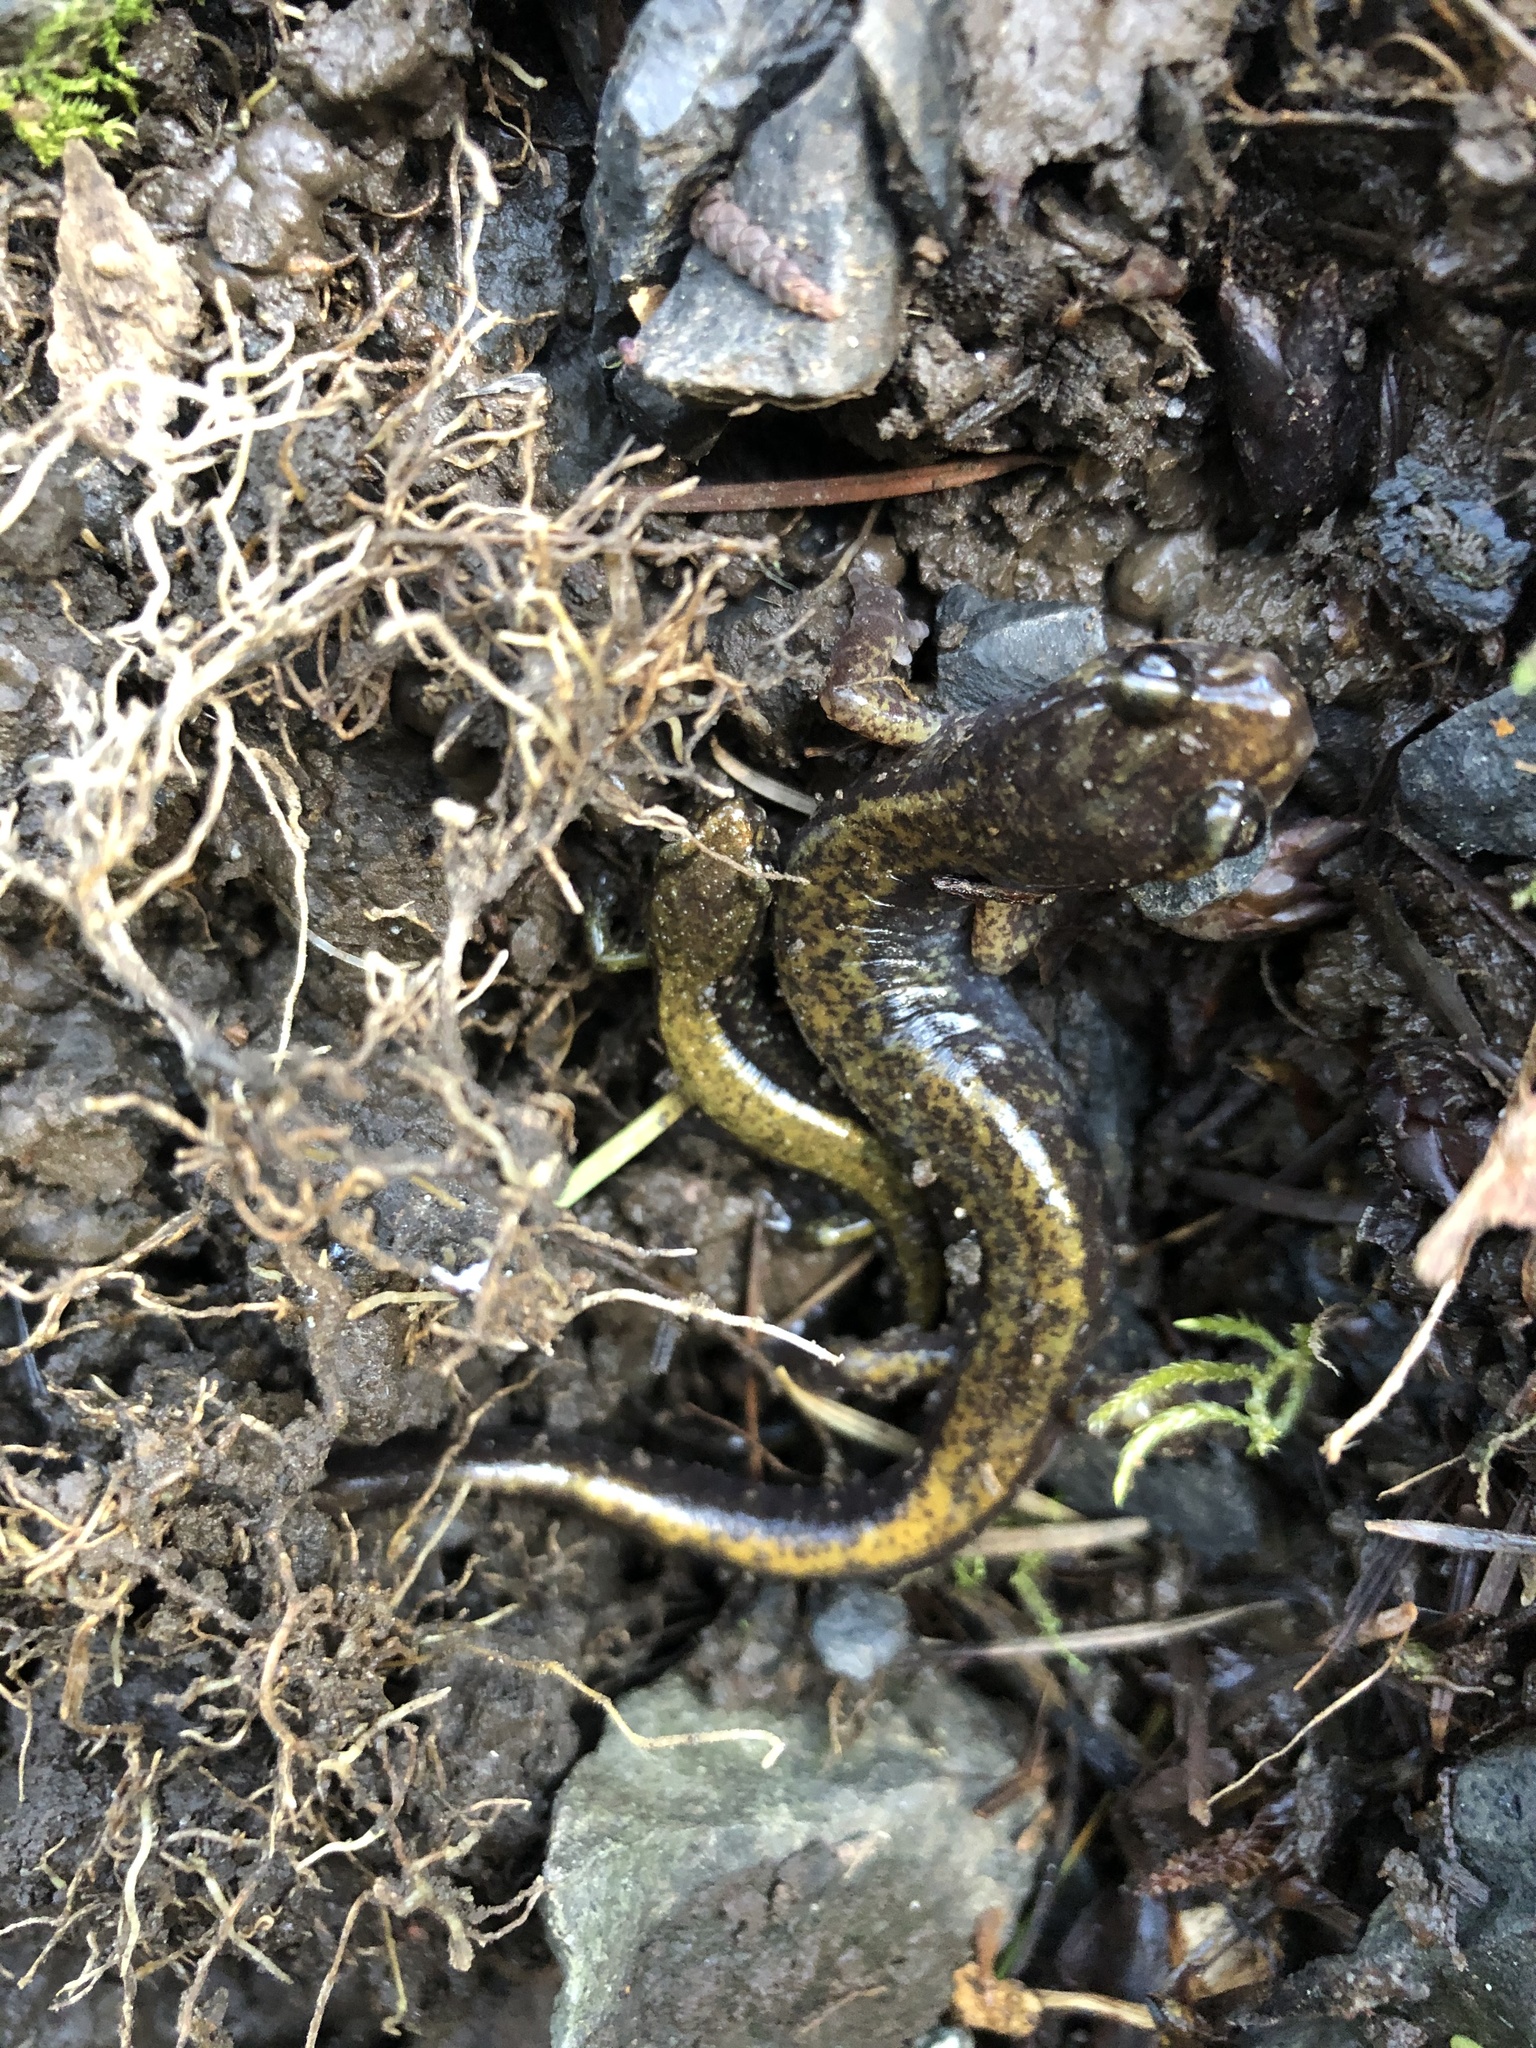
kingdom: Animalia
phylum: Chordata
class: Amphibia
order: Caudata
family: Plethodontidae
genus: Plethodon
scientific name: Plethodon dunni
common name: Dunn's salamander
